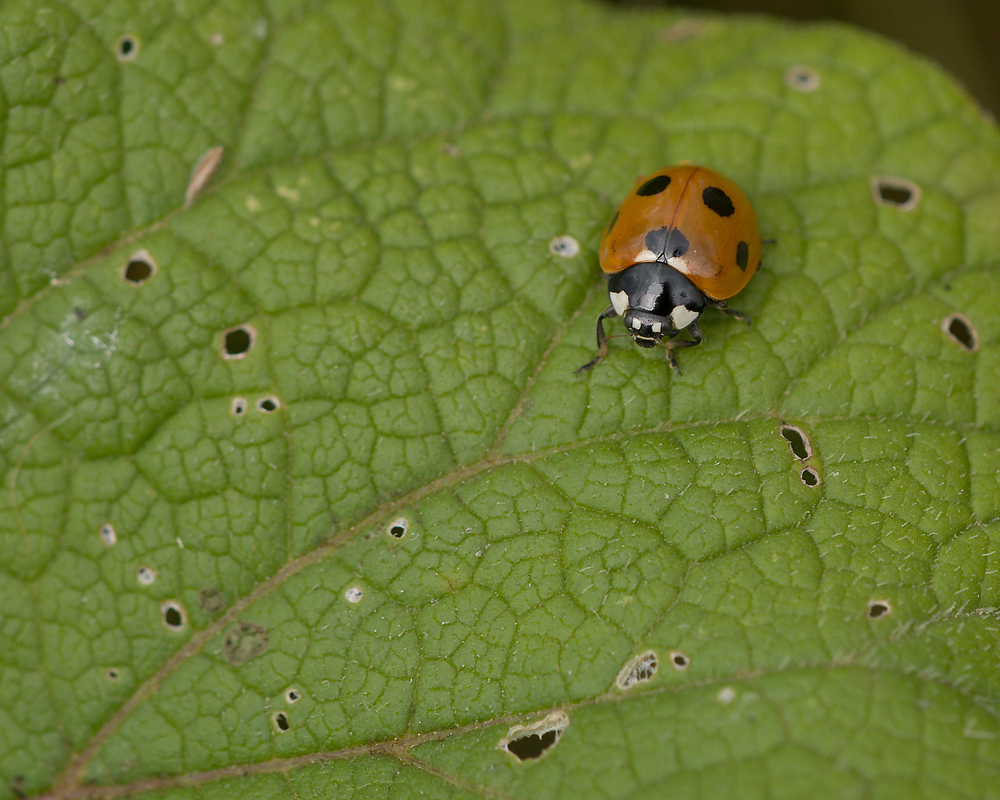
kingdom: Animalia
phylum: Arthropoda
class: Insecta
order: Coleoptera
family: Coccinellidae
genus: Coccinella
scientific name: Coccinella septempunctata
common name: Sevenspotted lady beetle
